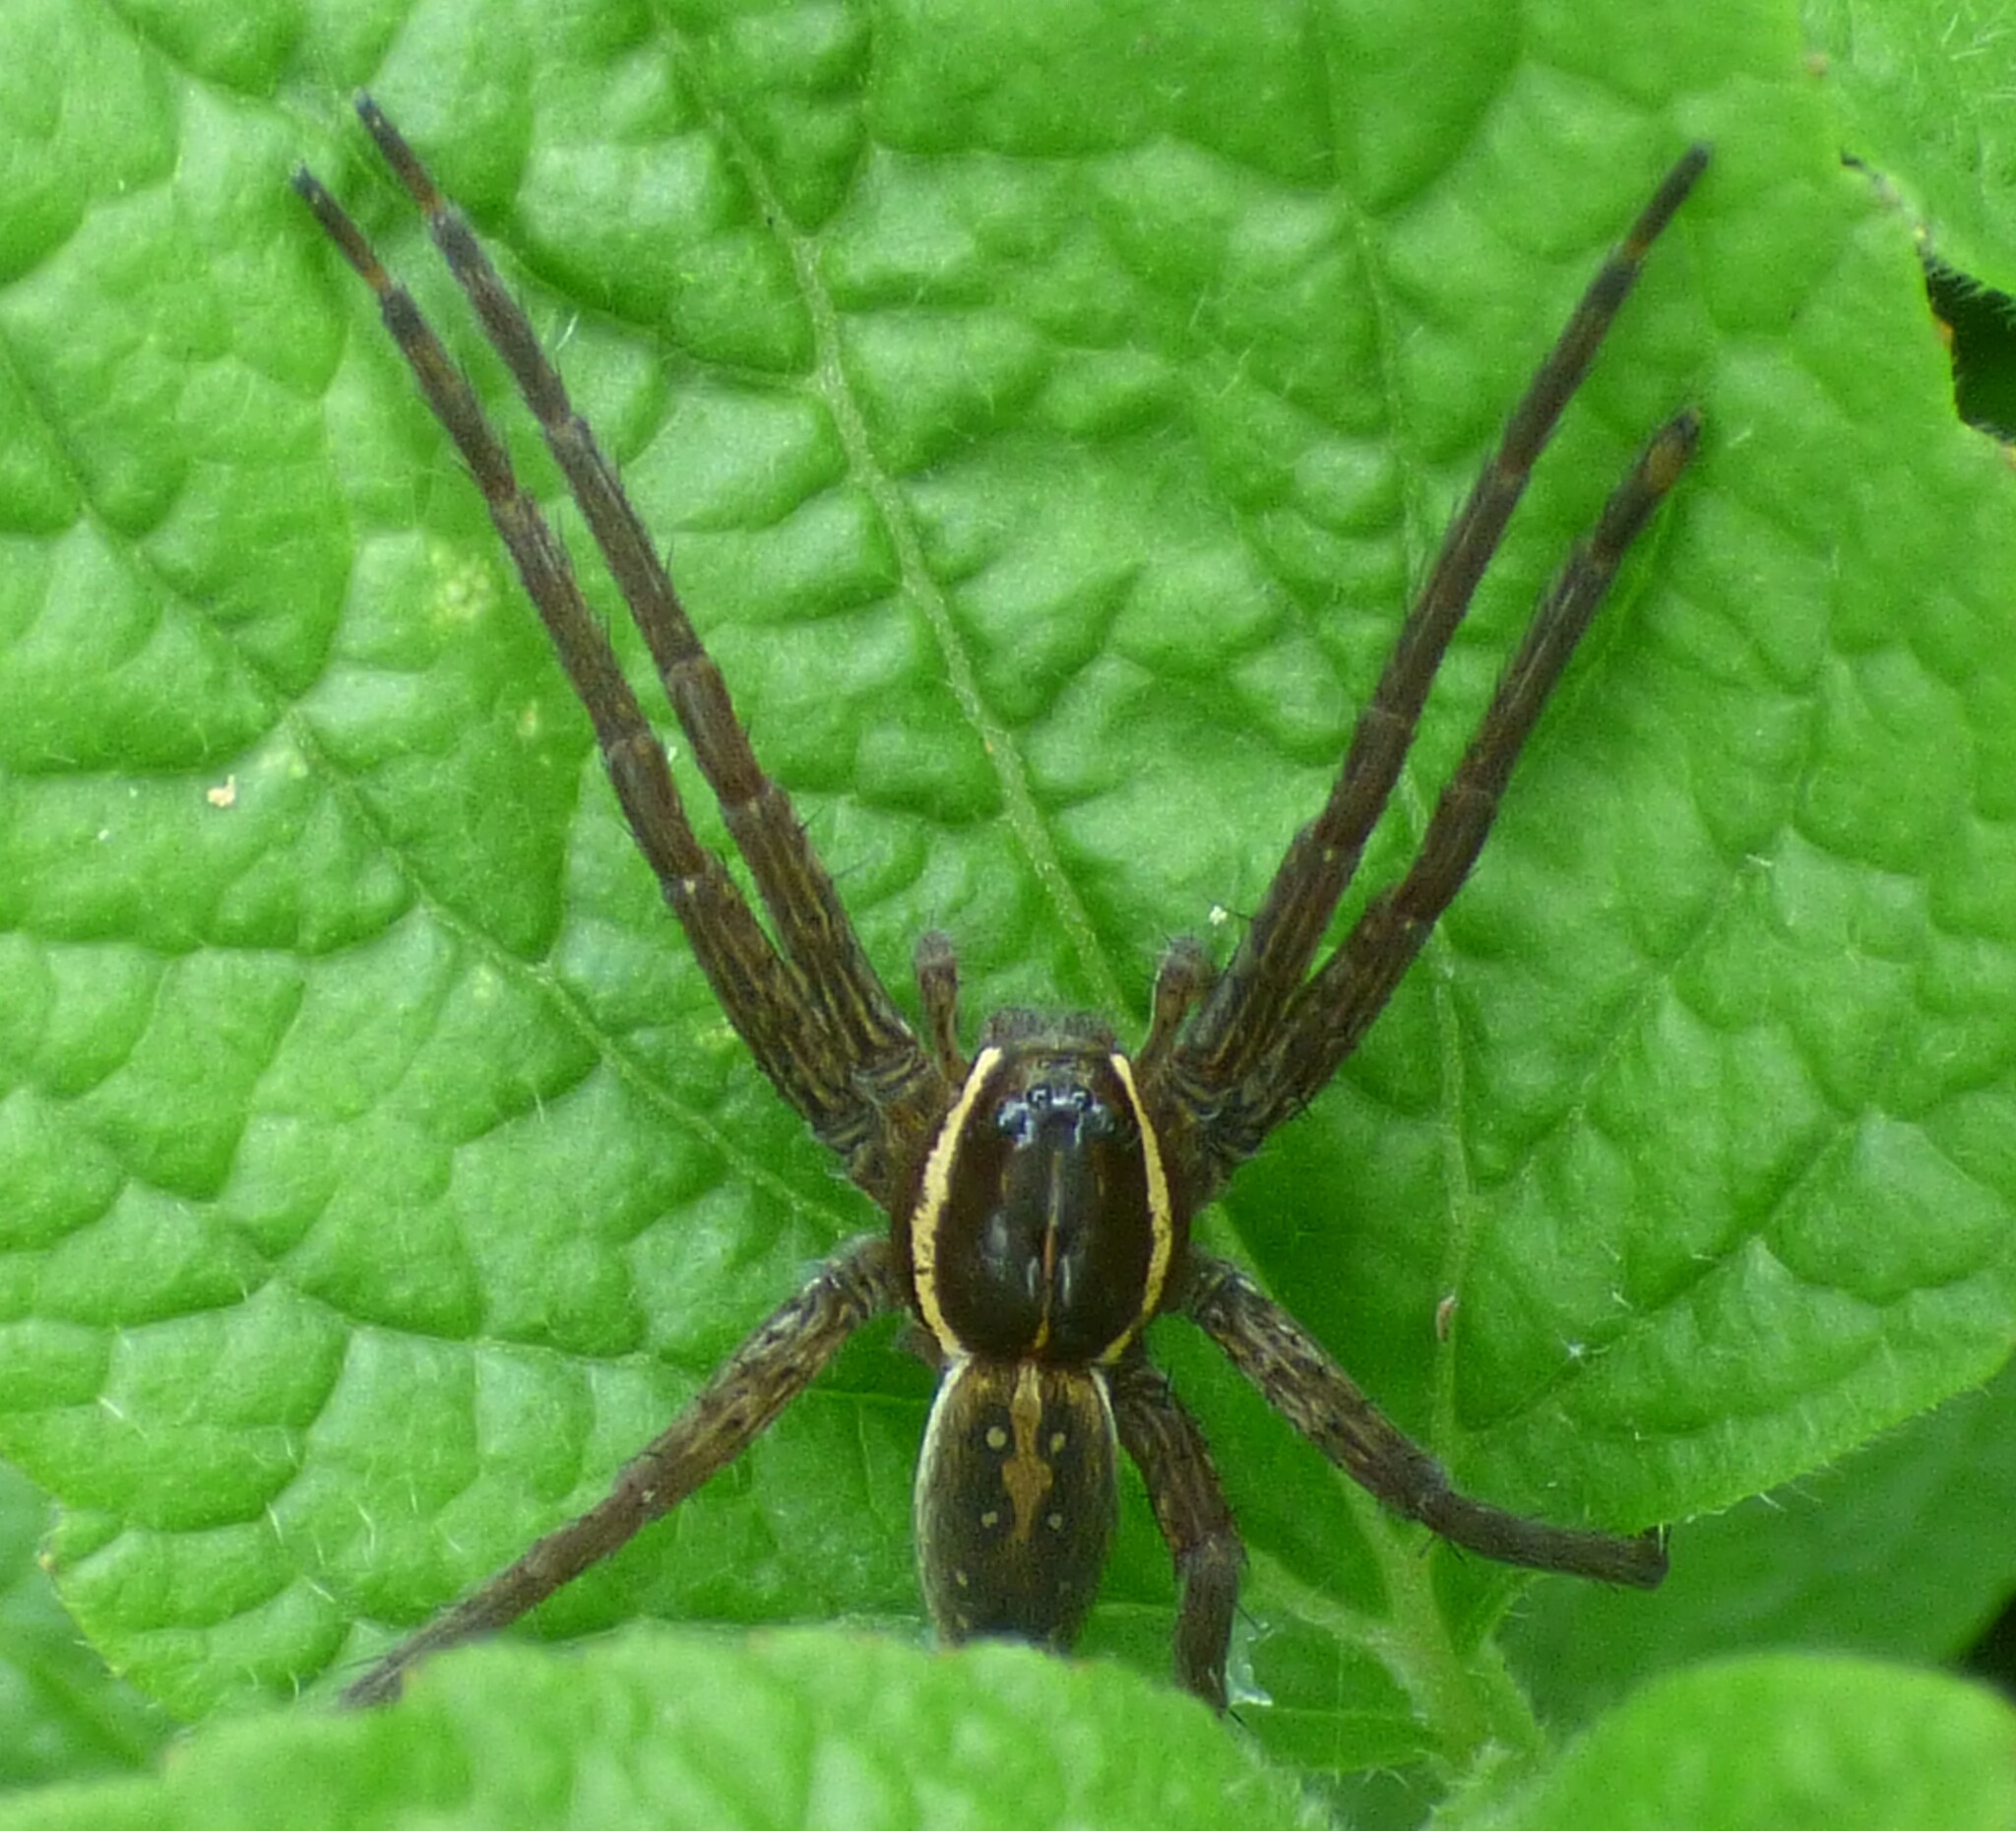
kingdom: Animalia
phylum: Arthropoda
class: Arachnida
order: Araneae
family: Pisauridae
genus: Dolomedes
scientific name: Dolomedes triton
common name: Six-spotted fishing spider
